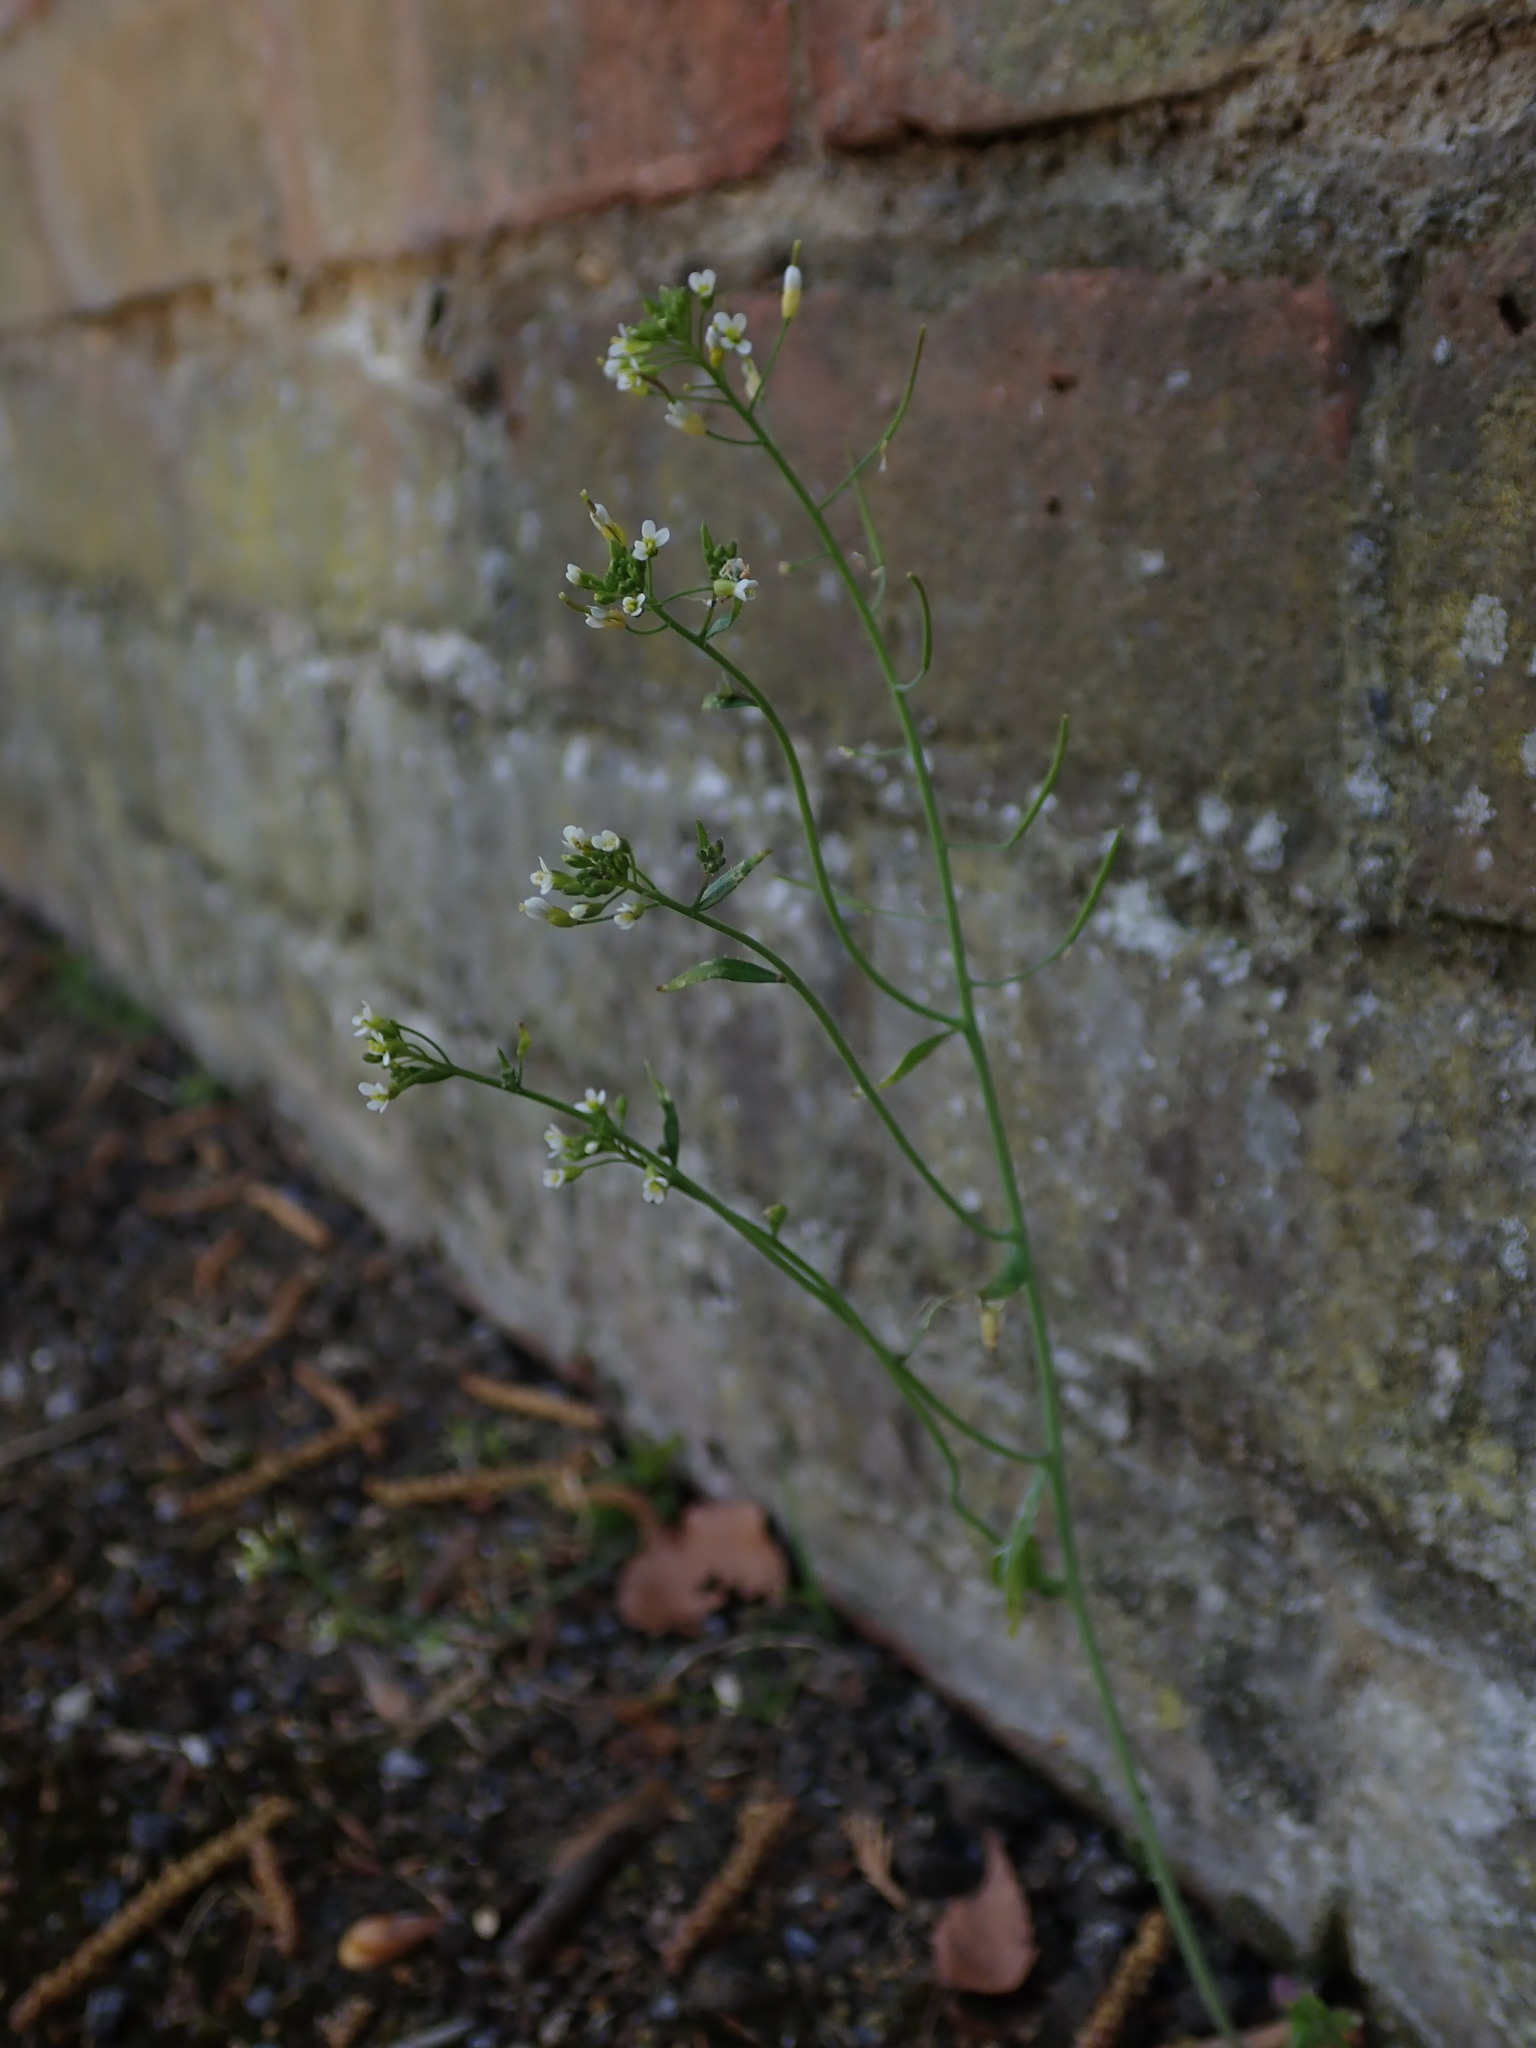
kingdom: Plantae
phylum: Tracheophyta
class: Magnoliopsida
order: Brassicales
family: Brassicaceae
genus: Arabidopsis
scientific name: Arabidopsis thaliana
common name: Thale cress
